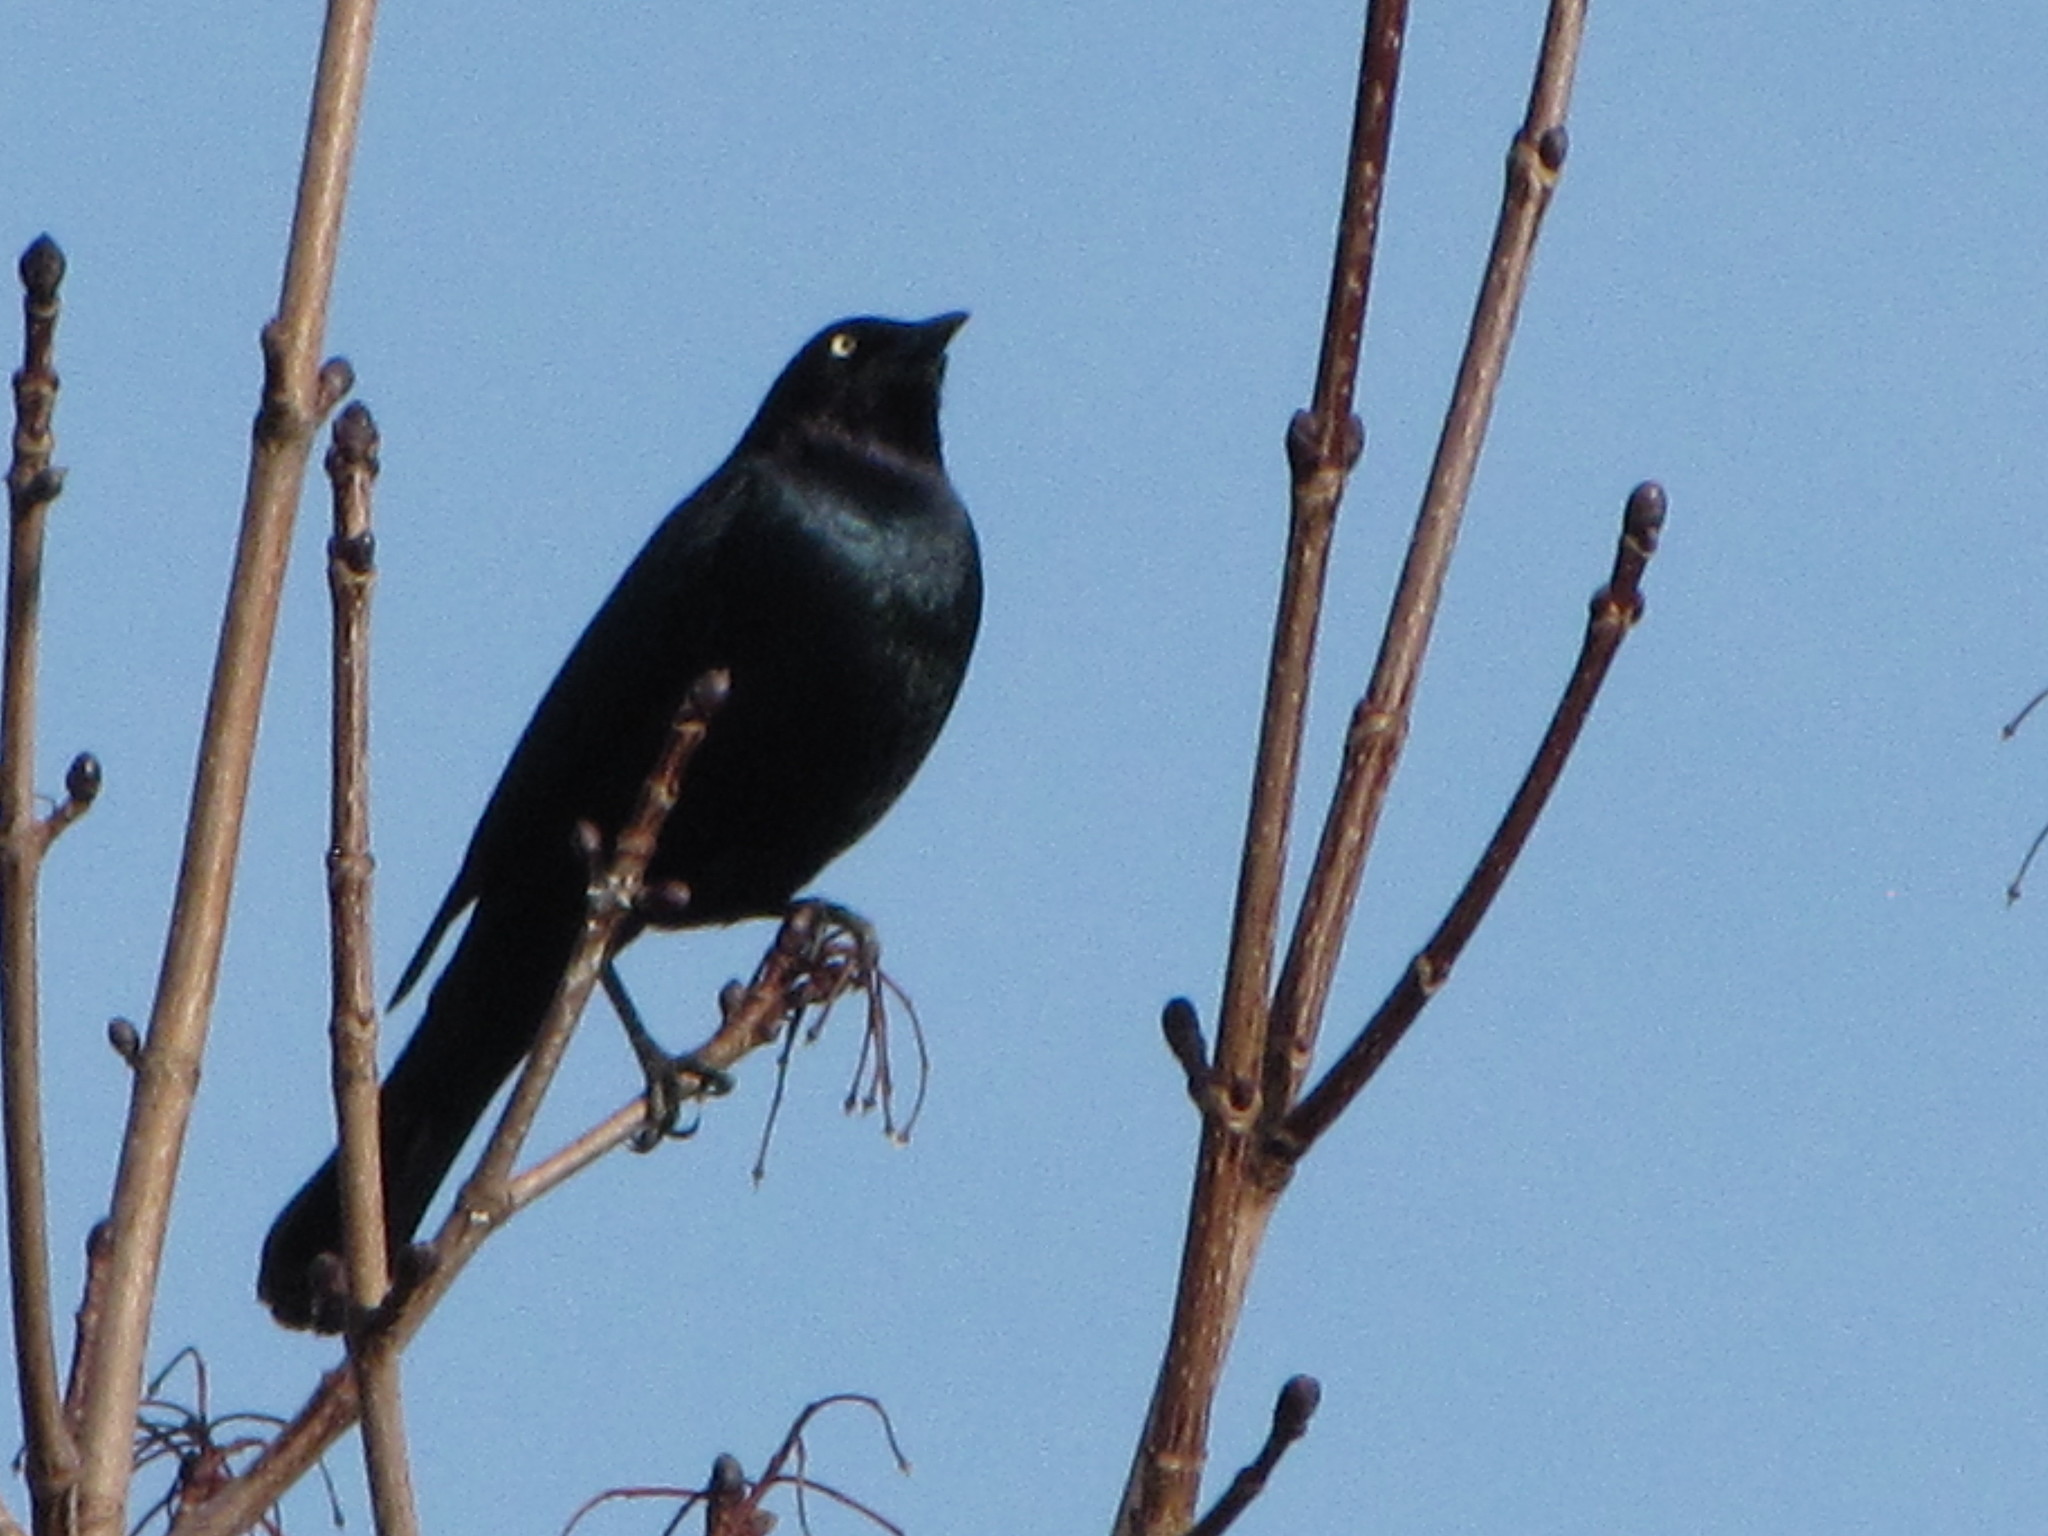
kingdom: Animalia
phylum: Chordata
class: Aves
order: Passeriformes
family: Icteridae
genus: Euphagus
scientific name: Euphagus cyanocephalus
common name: Brewer's blackbird
